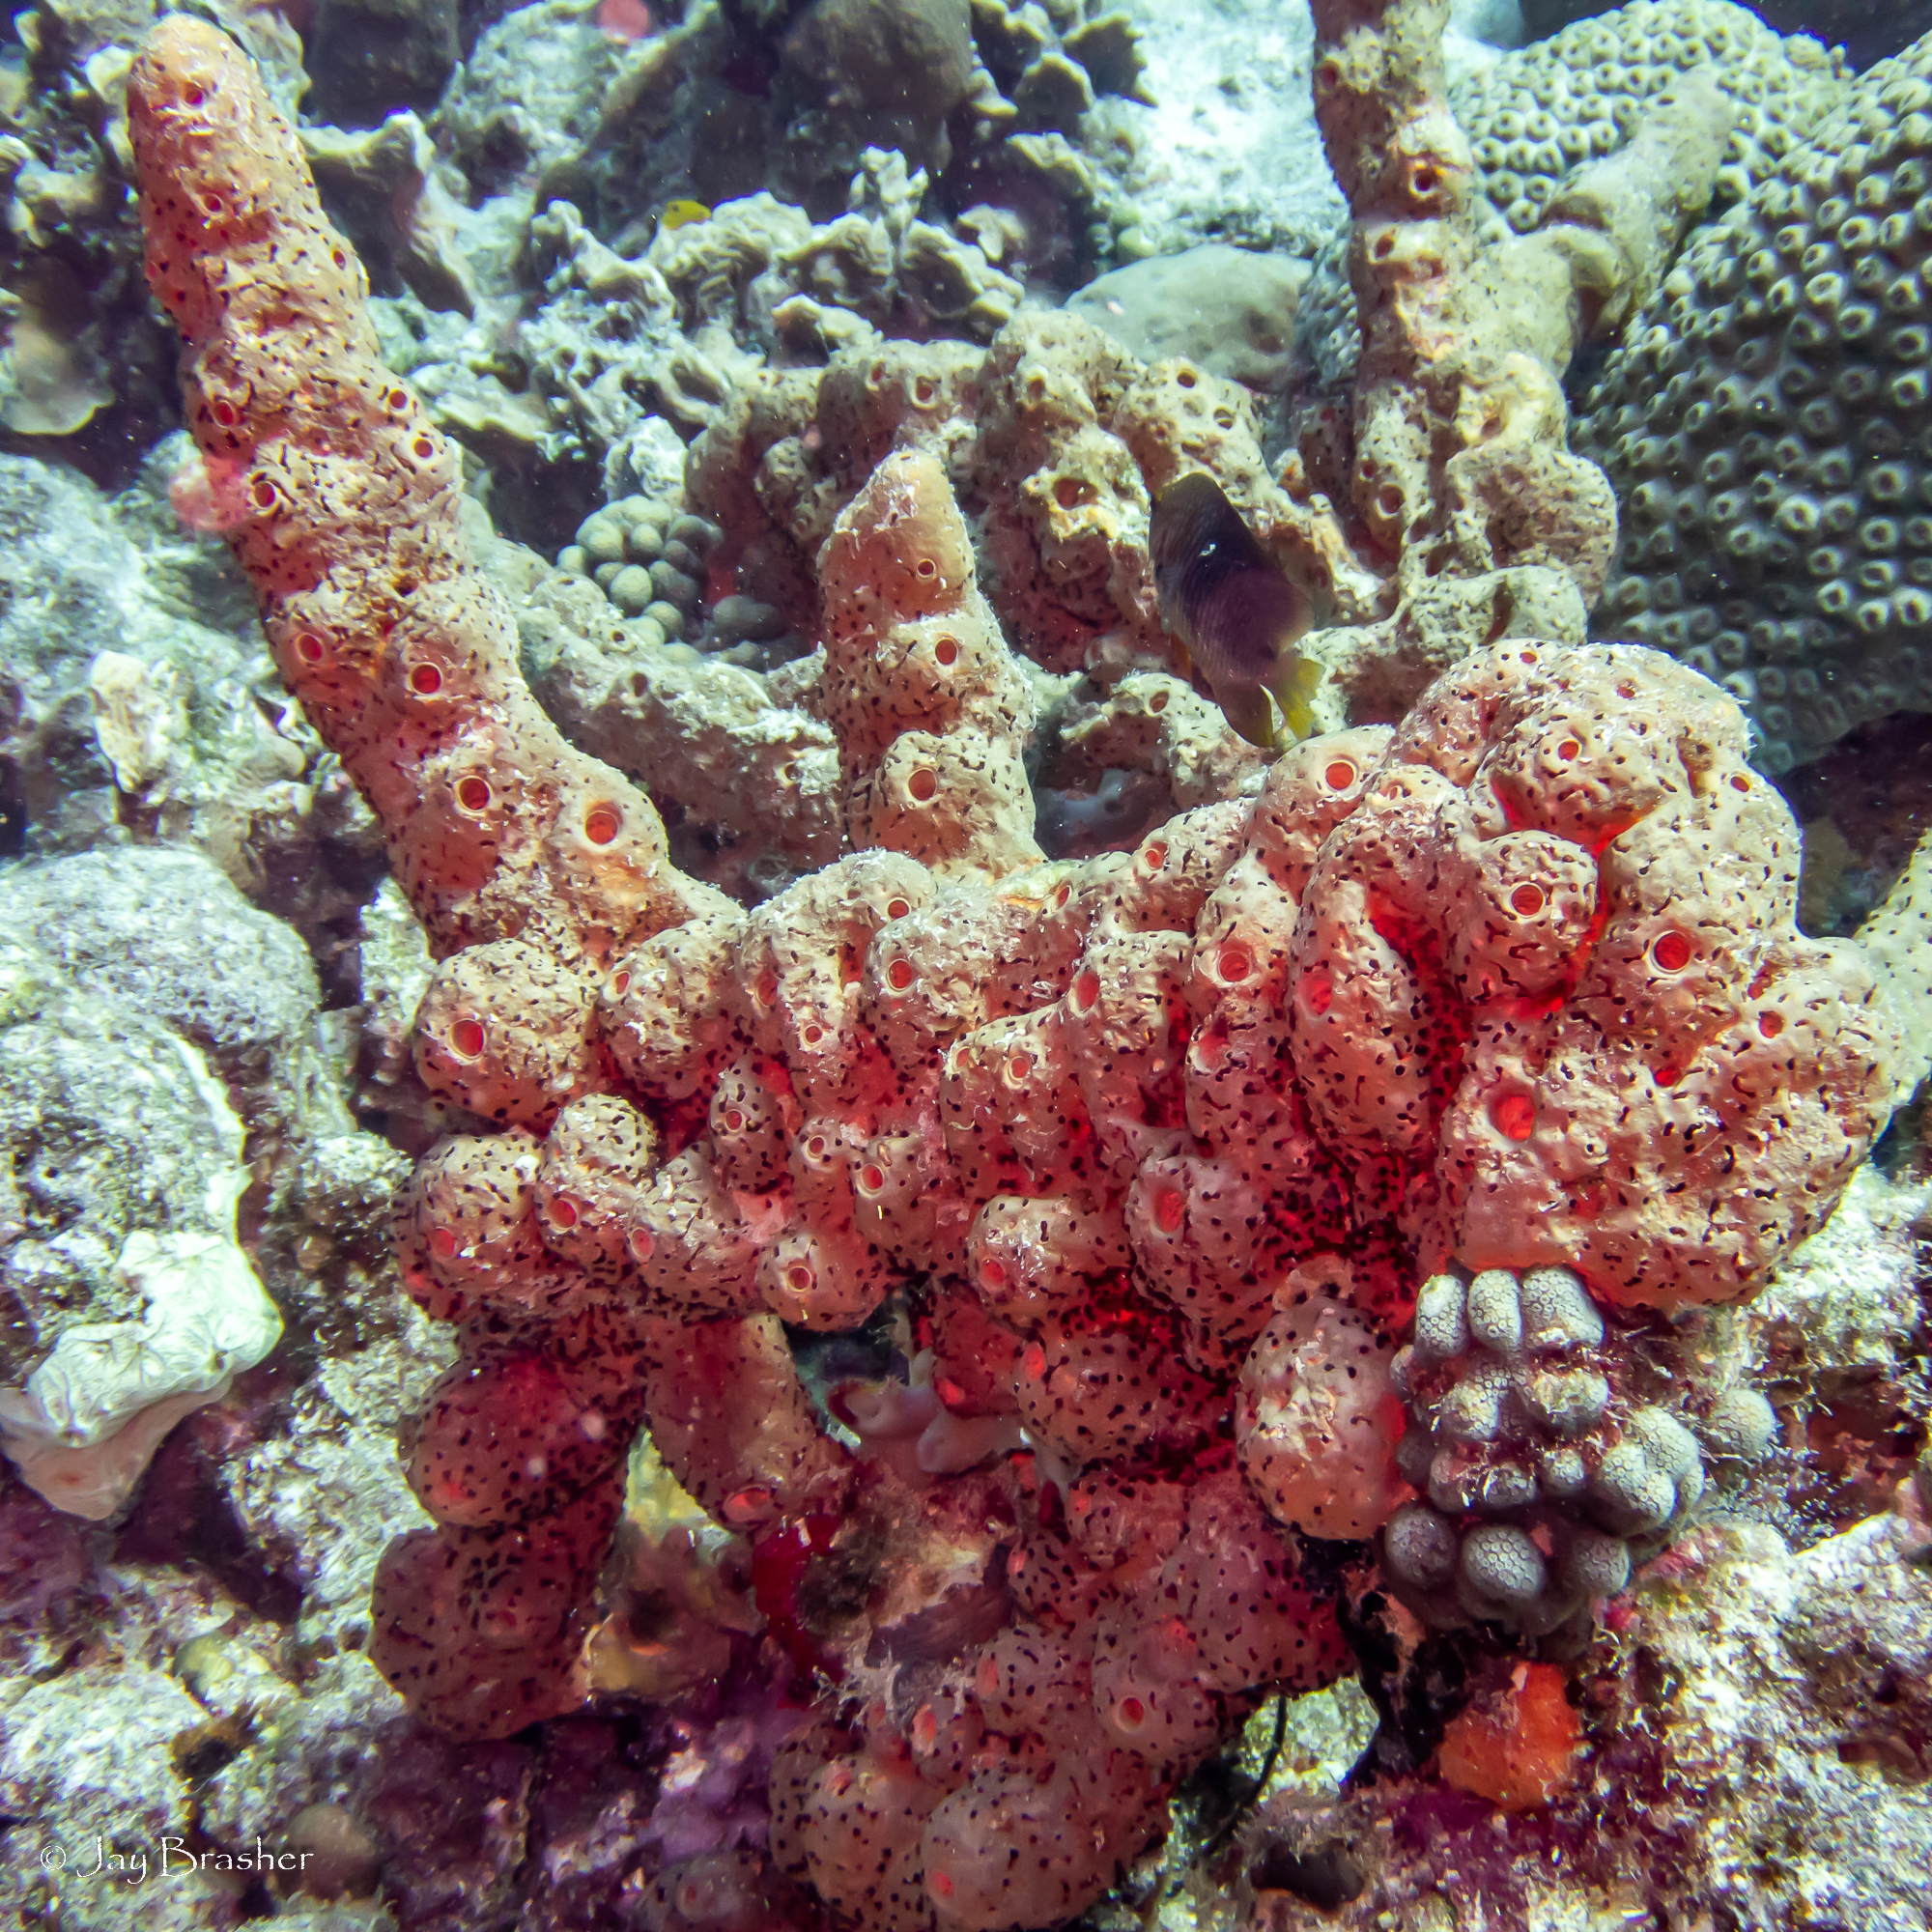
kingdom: Animalia
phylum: Cnidaria
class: Anthozoa
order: Zoantharia
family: Parazoanthidae
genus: Bergia
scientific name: Bergia puertoricense
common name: Maroon sponge zoanthid
